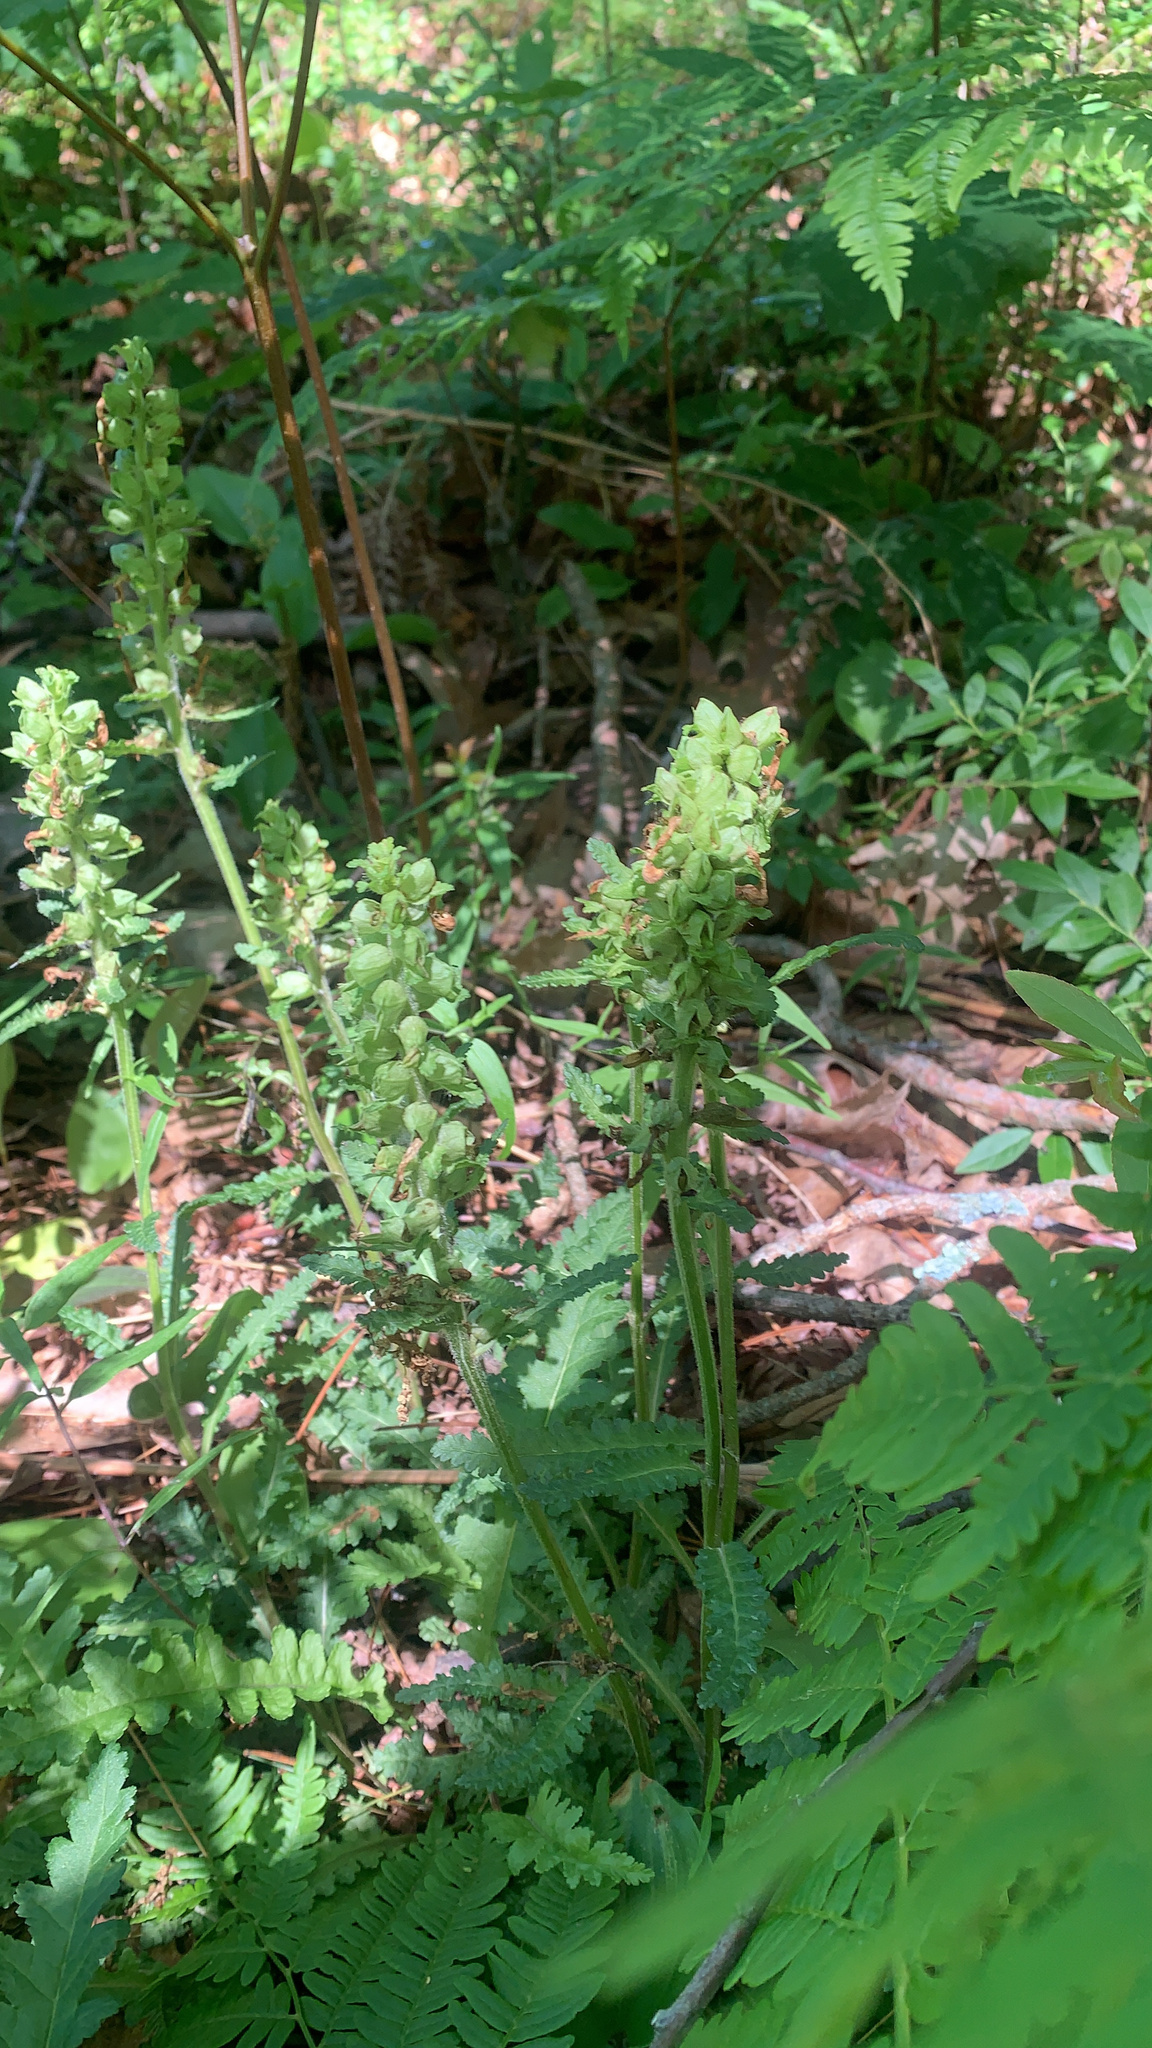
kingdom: Plantae
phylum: Tracheophyta
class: Magnoliopsida
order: Lamiales
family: Orobanchaceae
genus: Pedicularis
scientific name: Pedicularis canadensis
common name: Early lousewort
